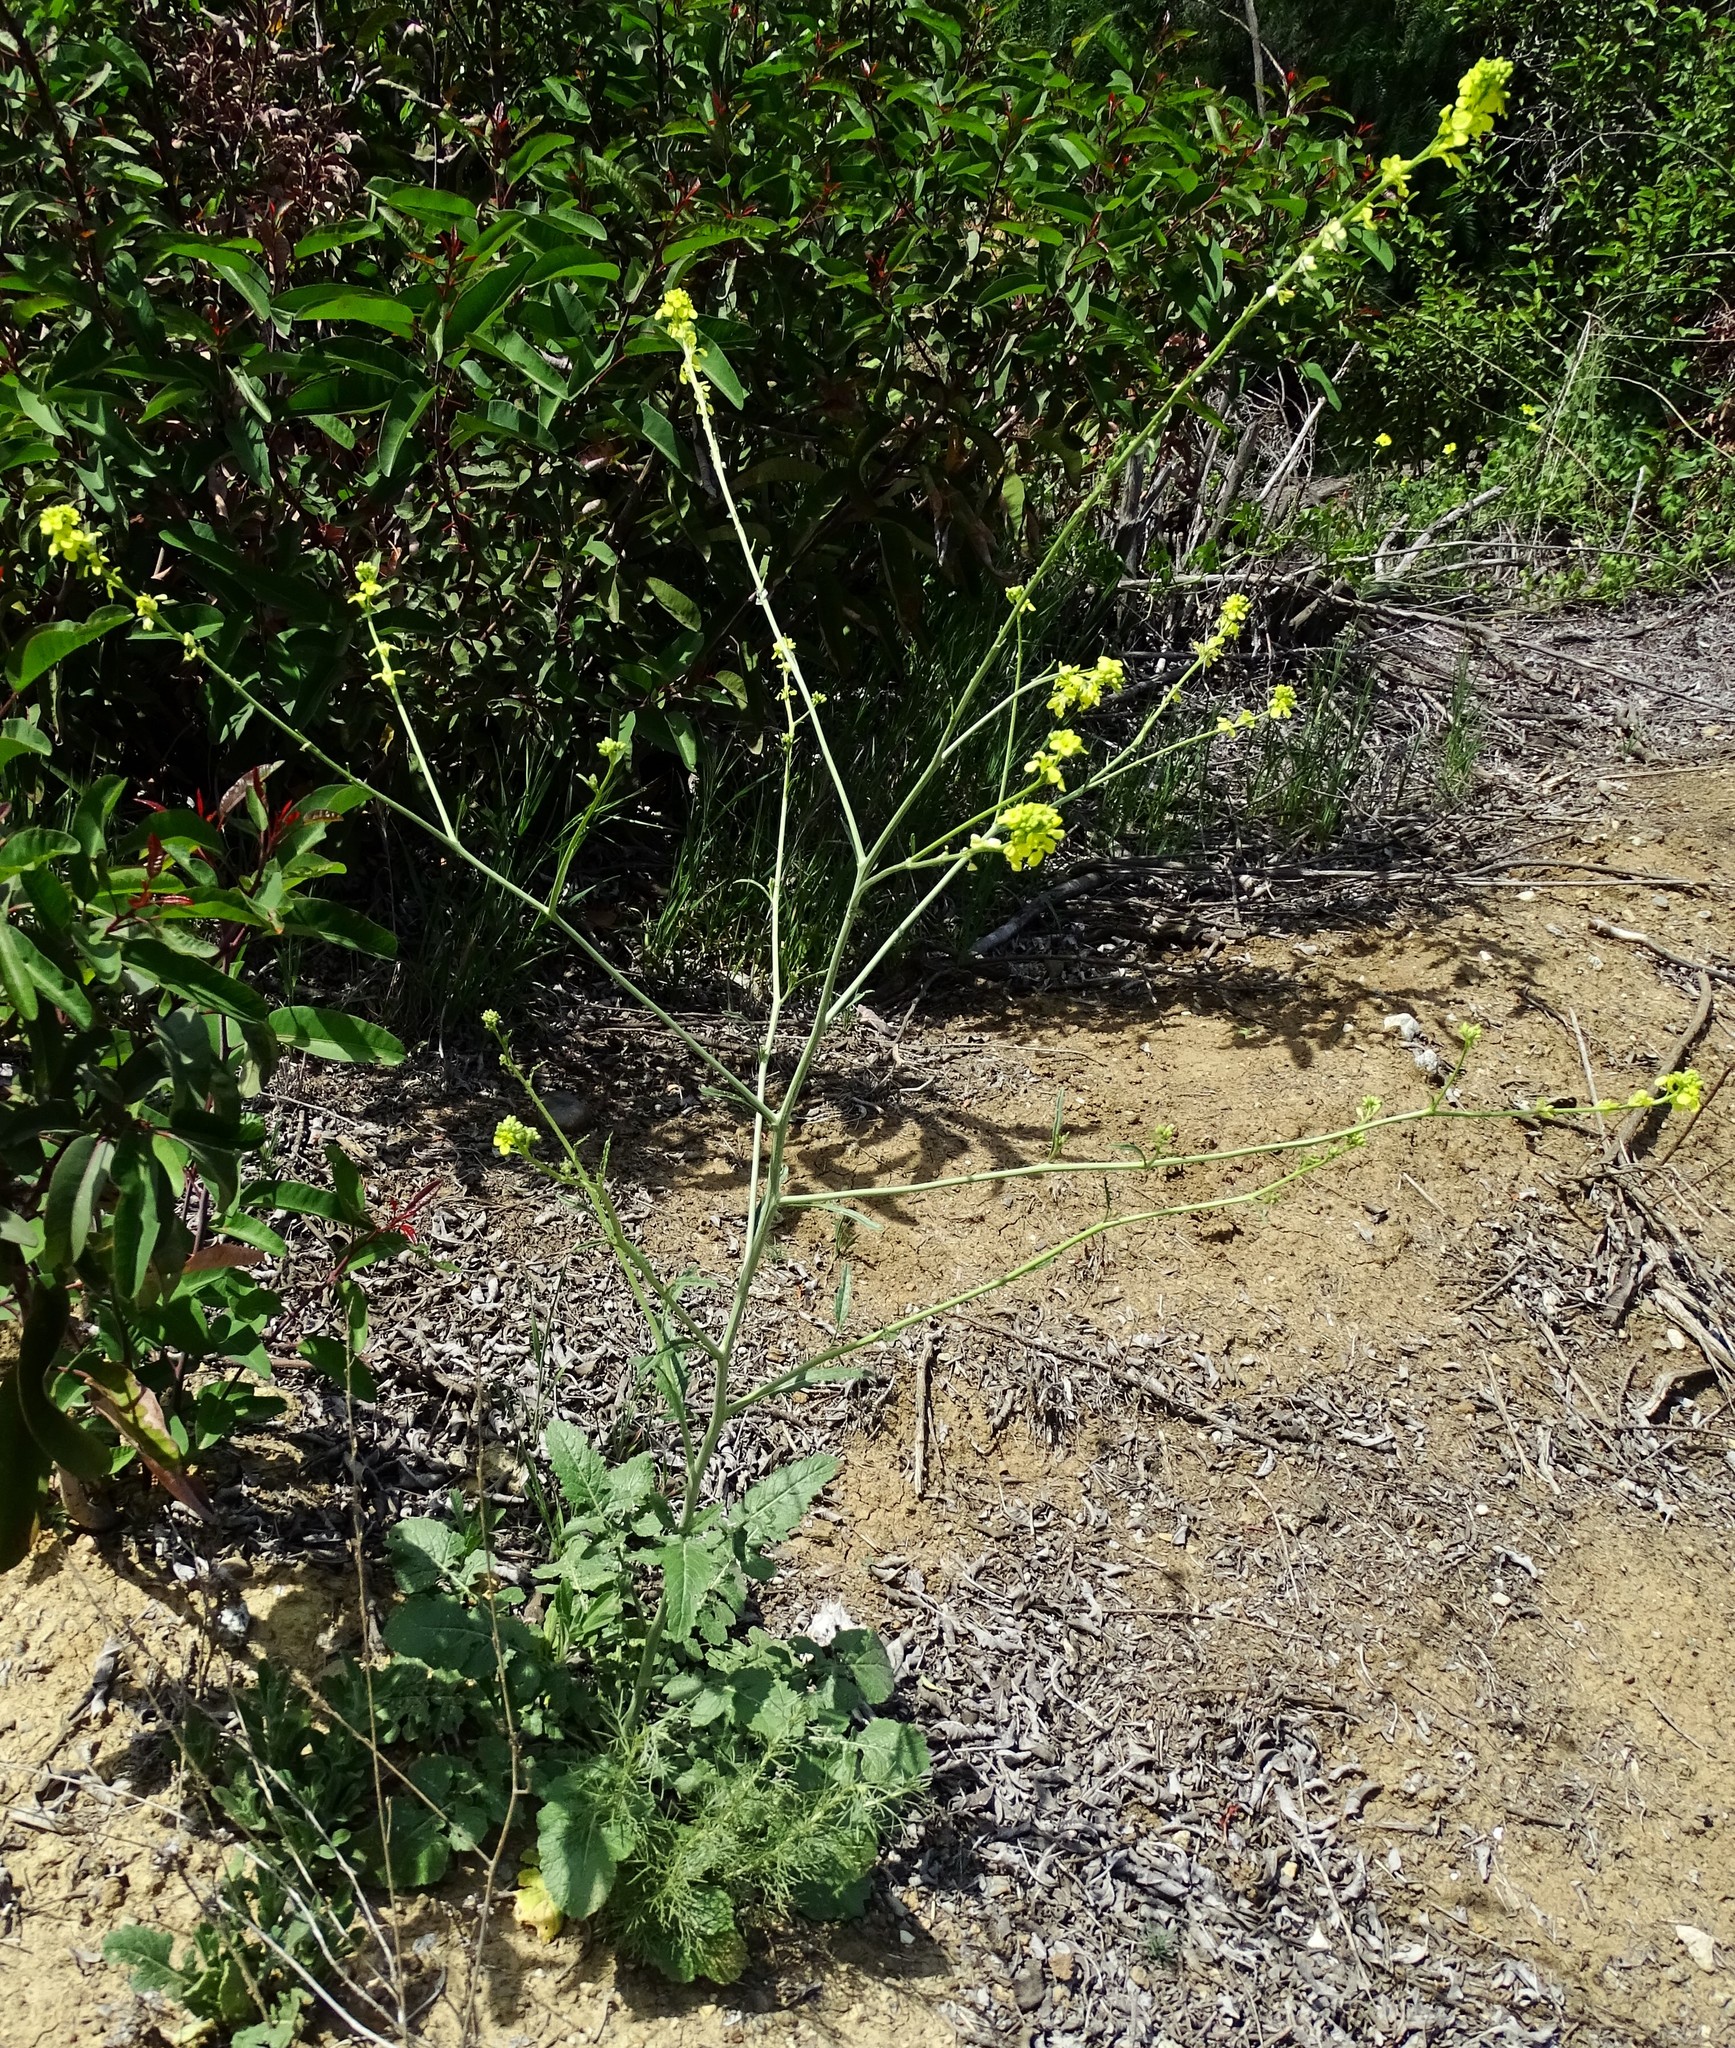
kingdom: Plantae
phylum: Tracheophyta
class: Magnoliopsida
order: Brassicales
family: Brassicaceae
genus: Hirschfeldia
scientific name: Hirschfeldia incana
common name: Hoary mustard
